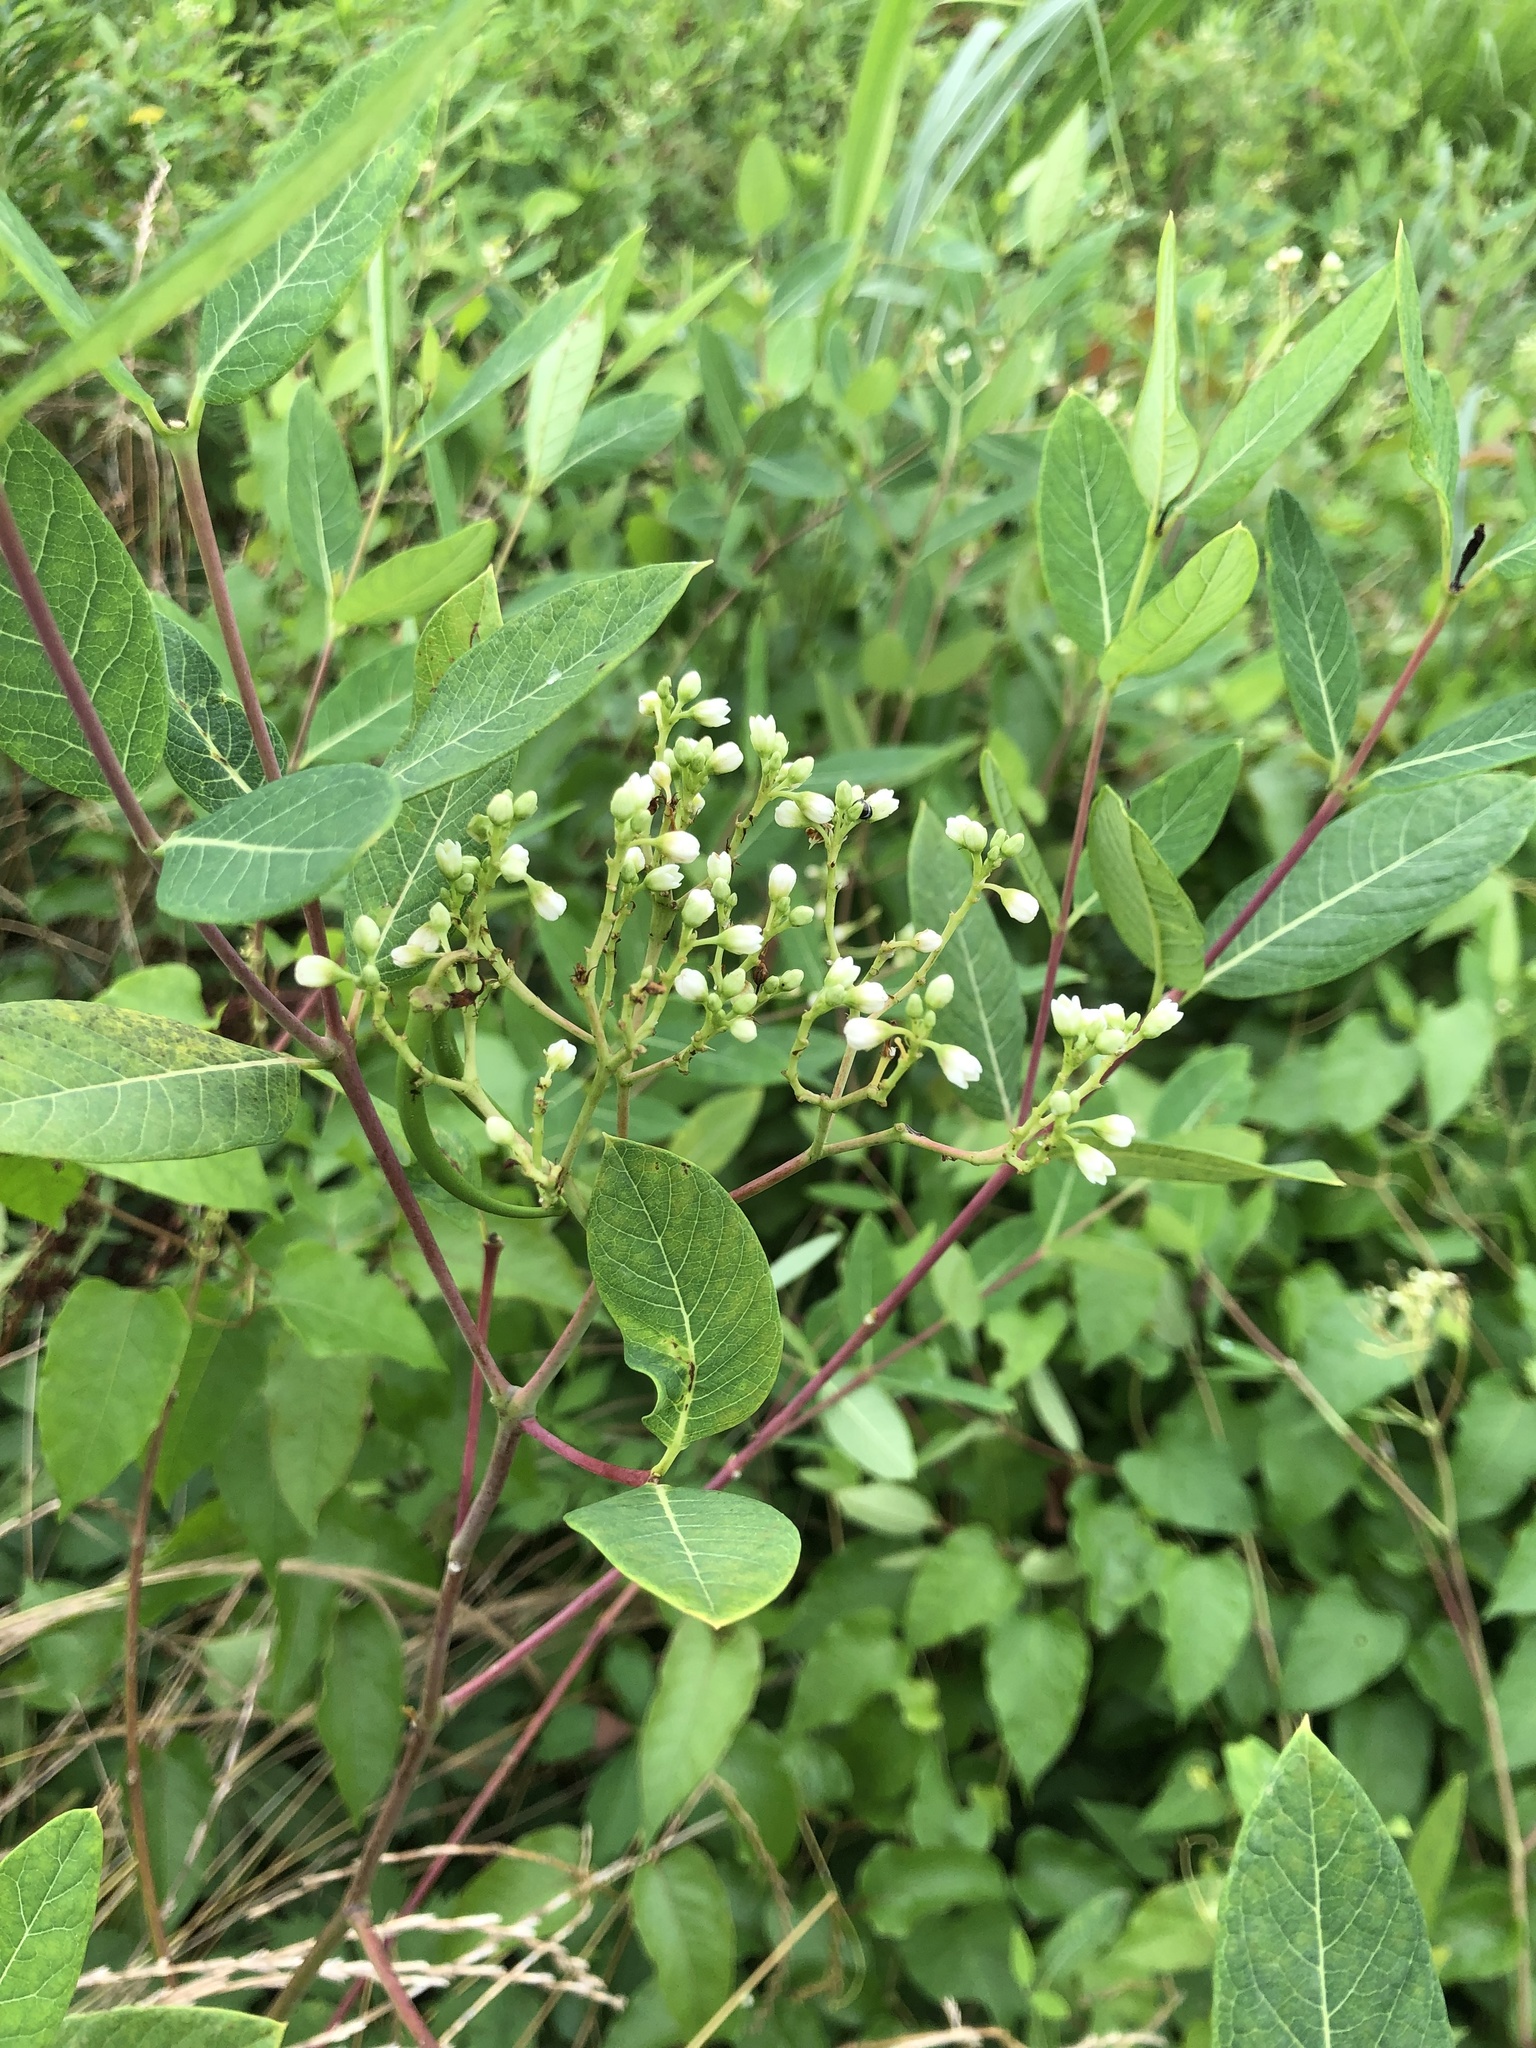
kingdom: Plantae
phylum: Tracheophyta
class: Magnoliopsida
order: Gentianales
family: Apocynaceae
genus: Apocynum
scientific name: Apocynum cannabinum
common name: Hemp dogbane
